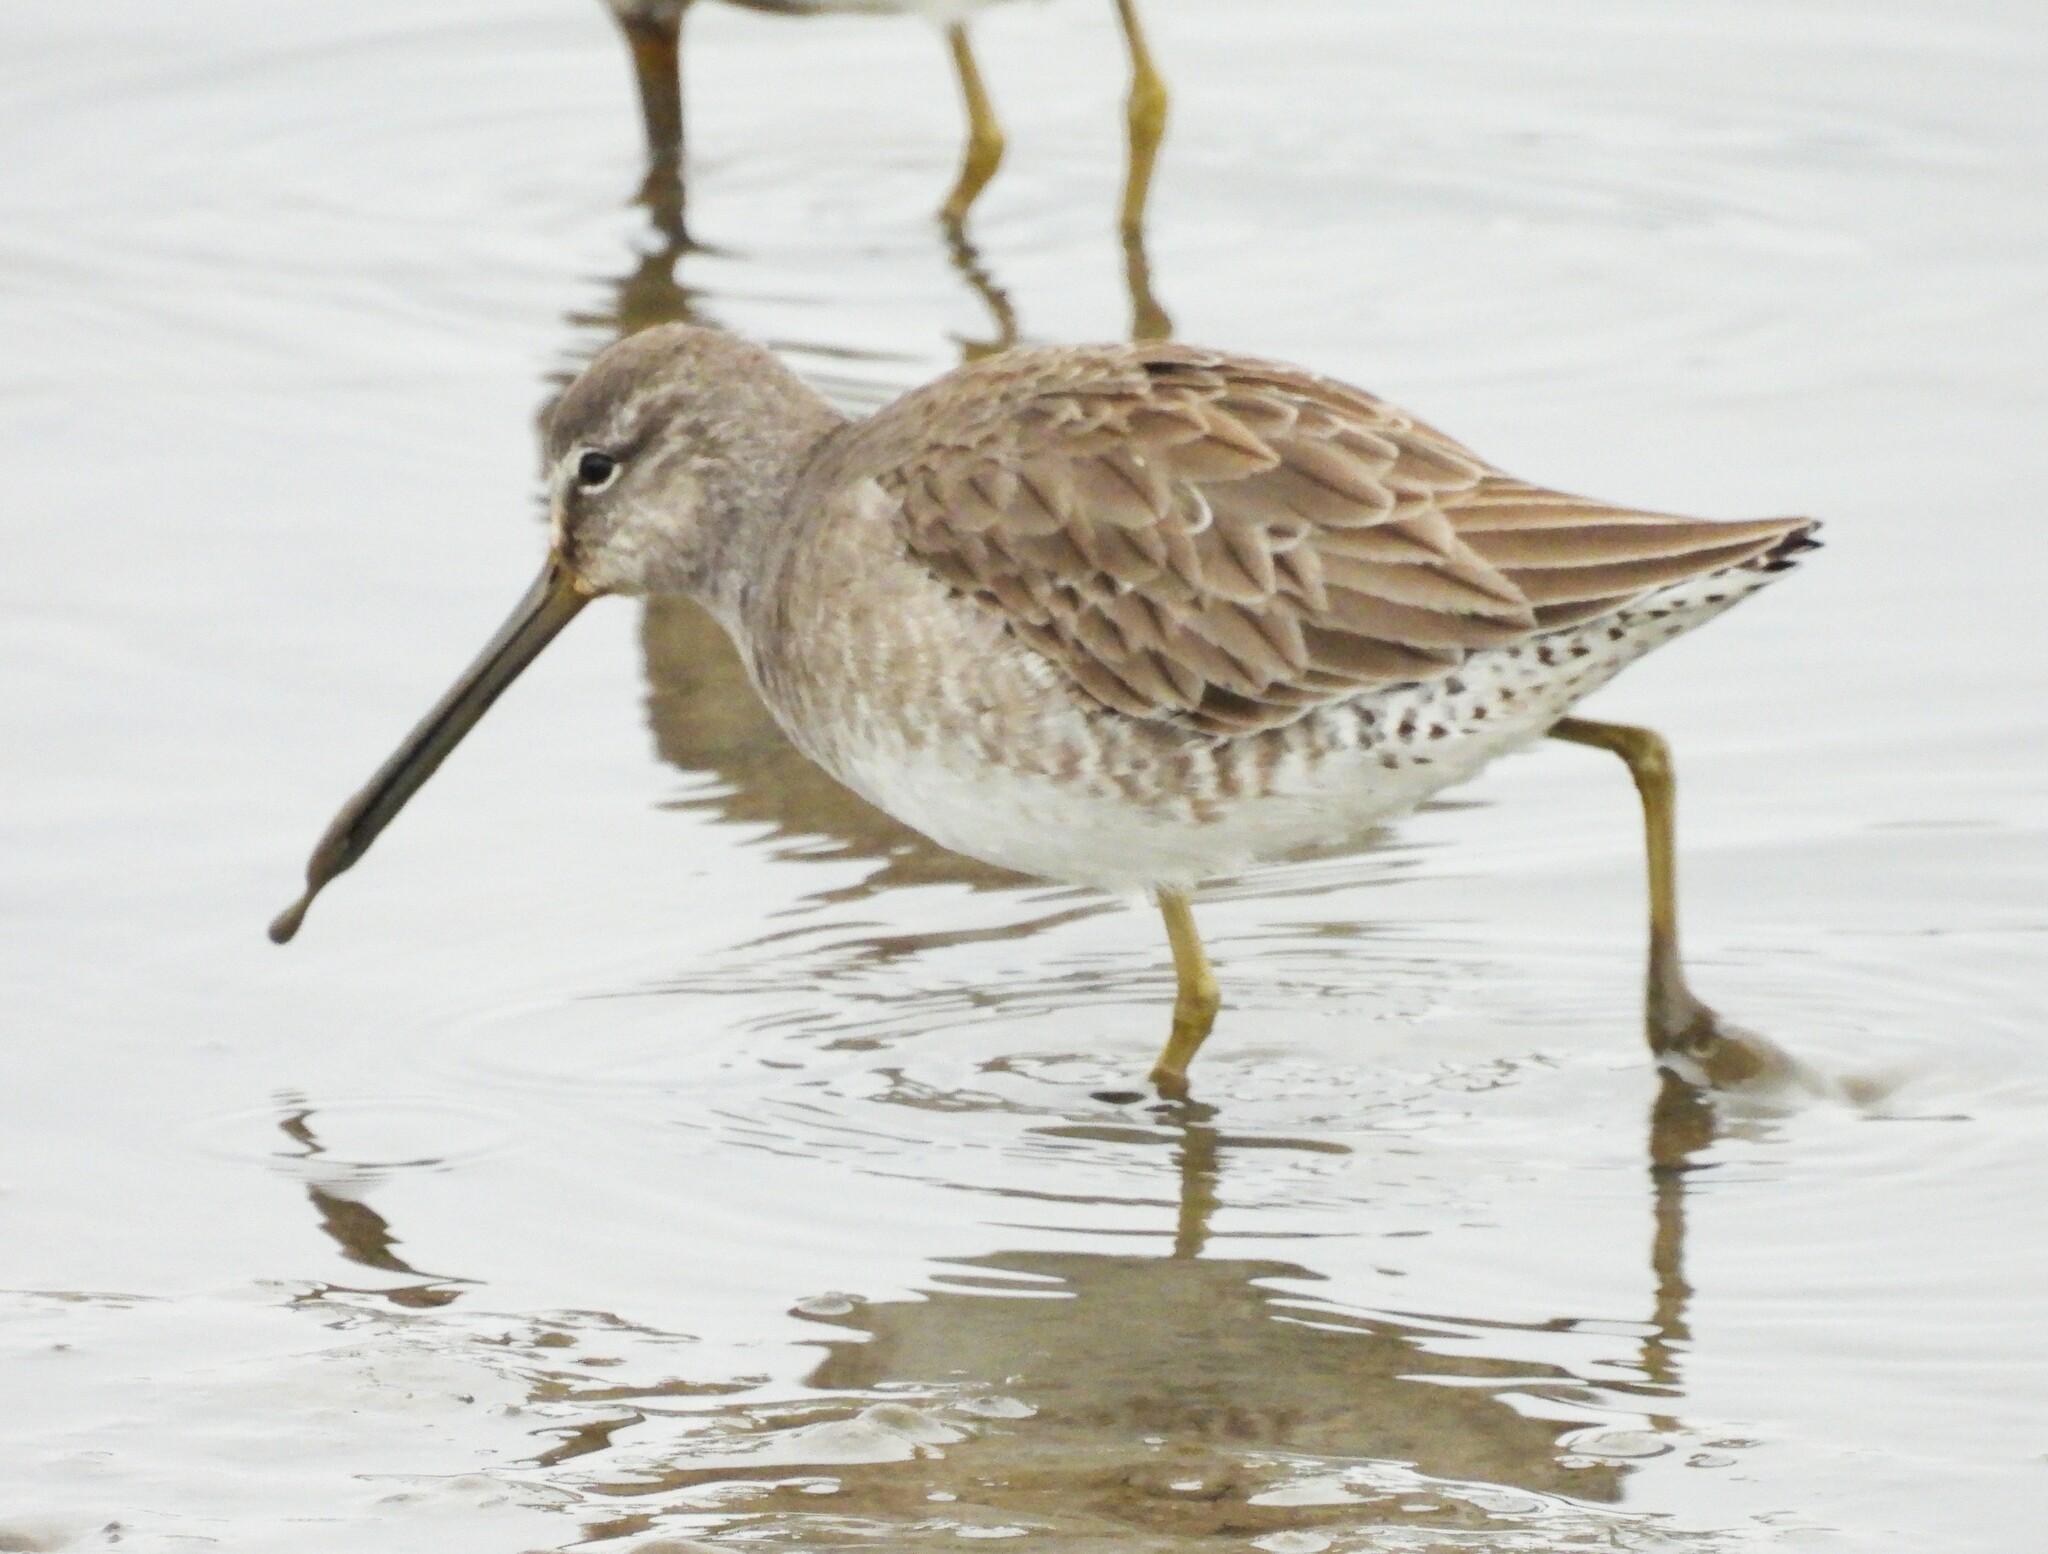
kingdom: Animalia
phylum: Chordata
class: Aves
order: Charadriiformes
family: Scolopacidae
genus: Limnodromus
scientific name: Limnodromus scolopaceus
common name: Long-billed dowitcher
